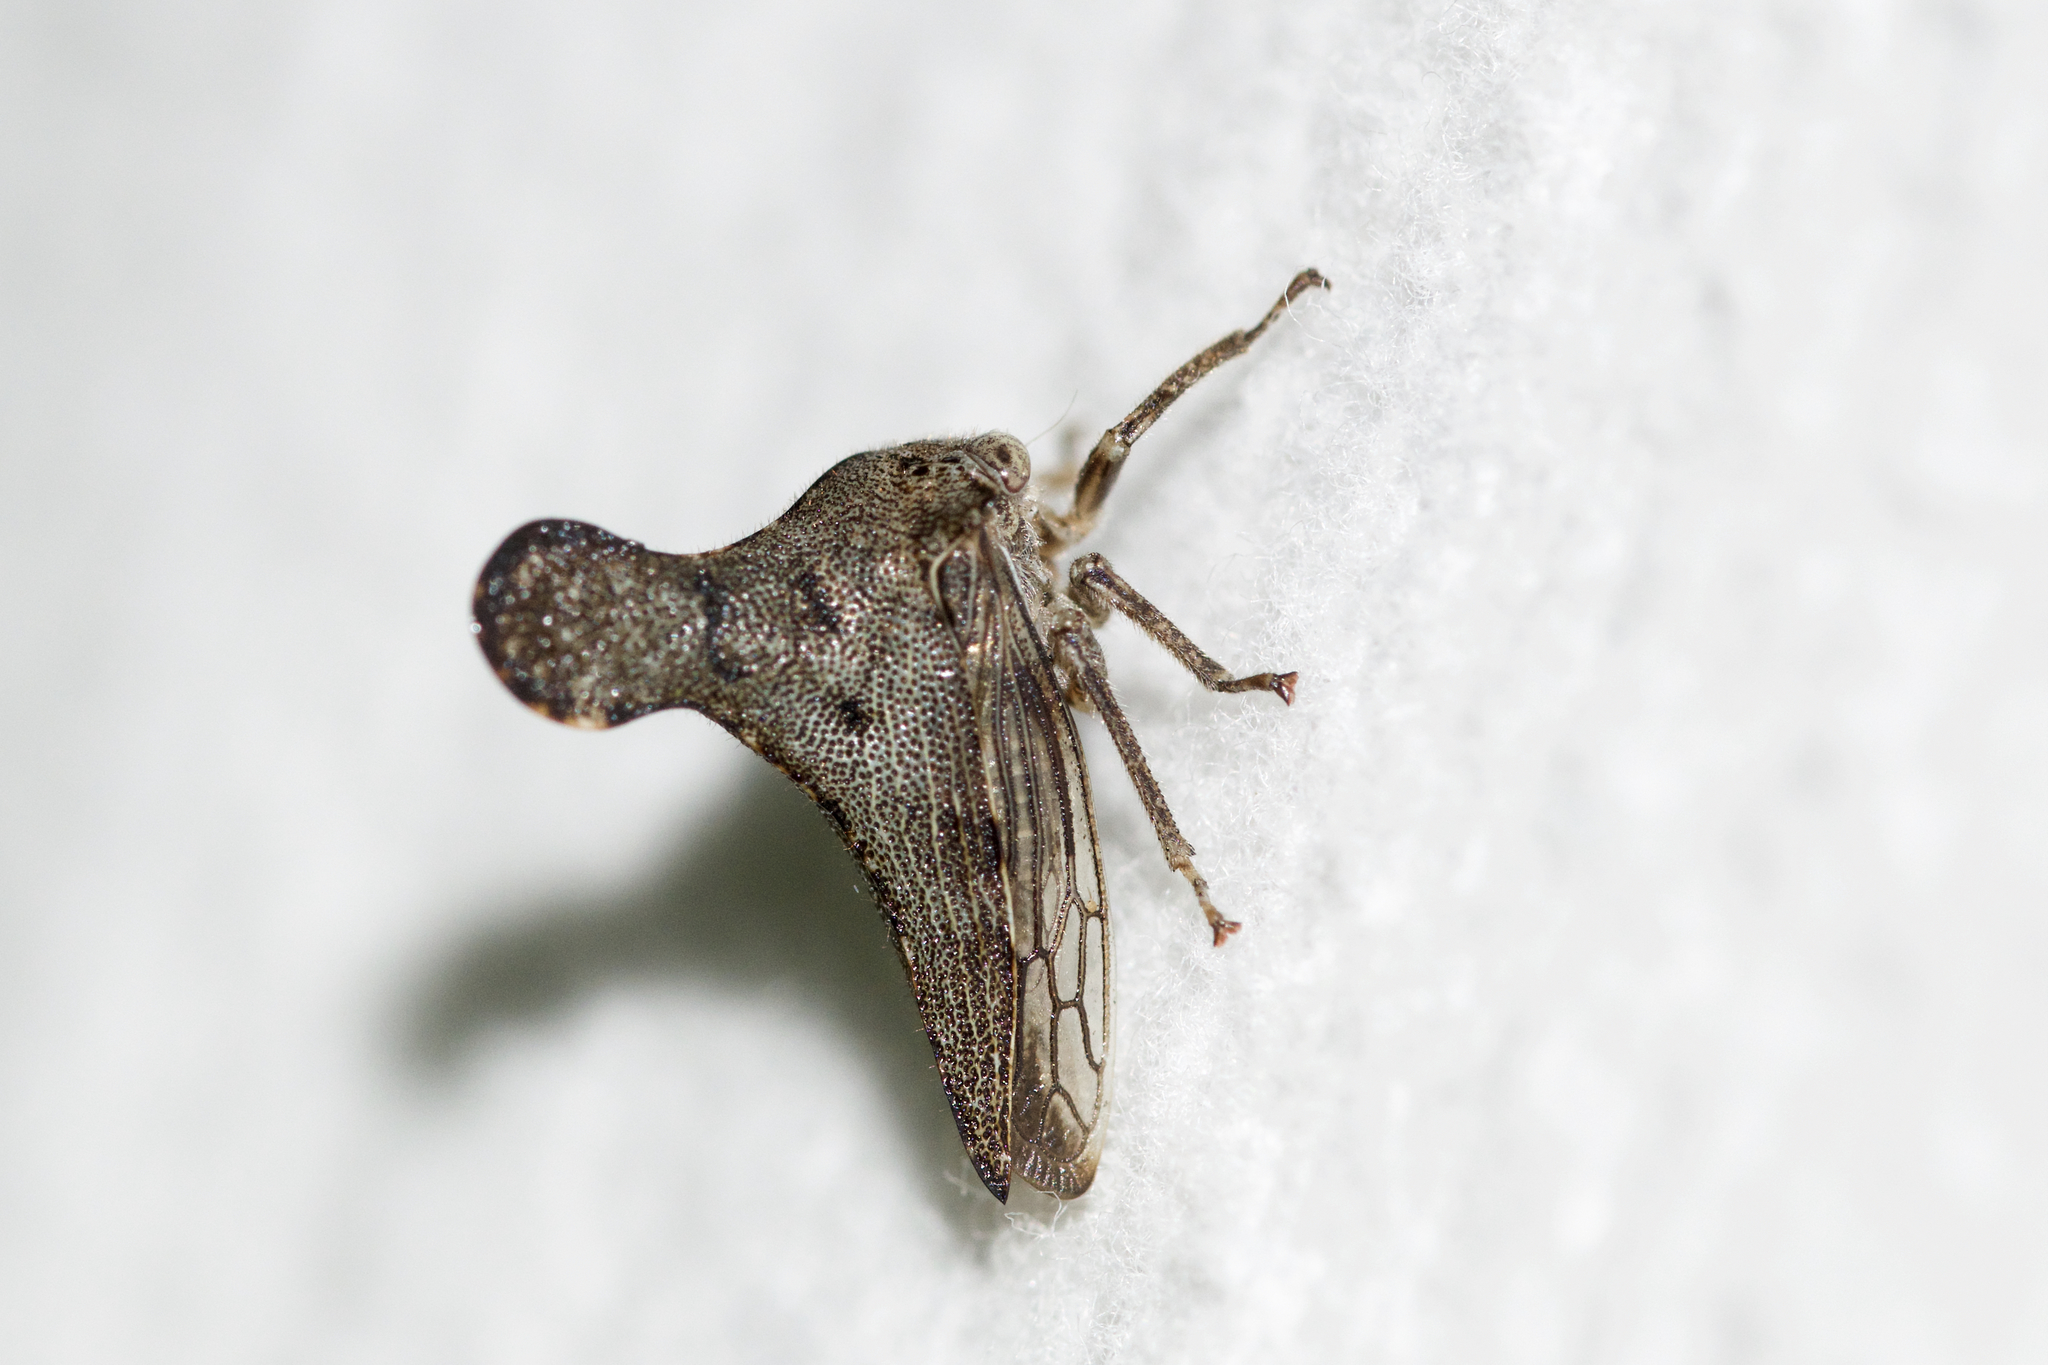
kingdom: Animalia
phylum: Arthropoda
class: Insecta
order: Hemiptera
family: Membracidae
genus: Glossonotus
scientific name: Glossonotus acuminata
